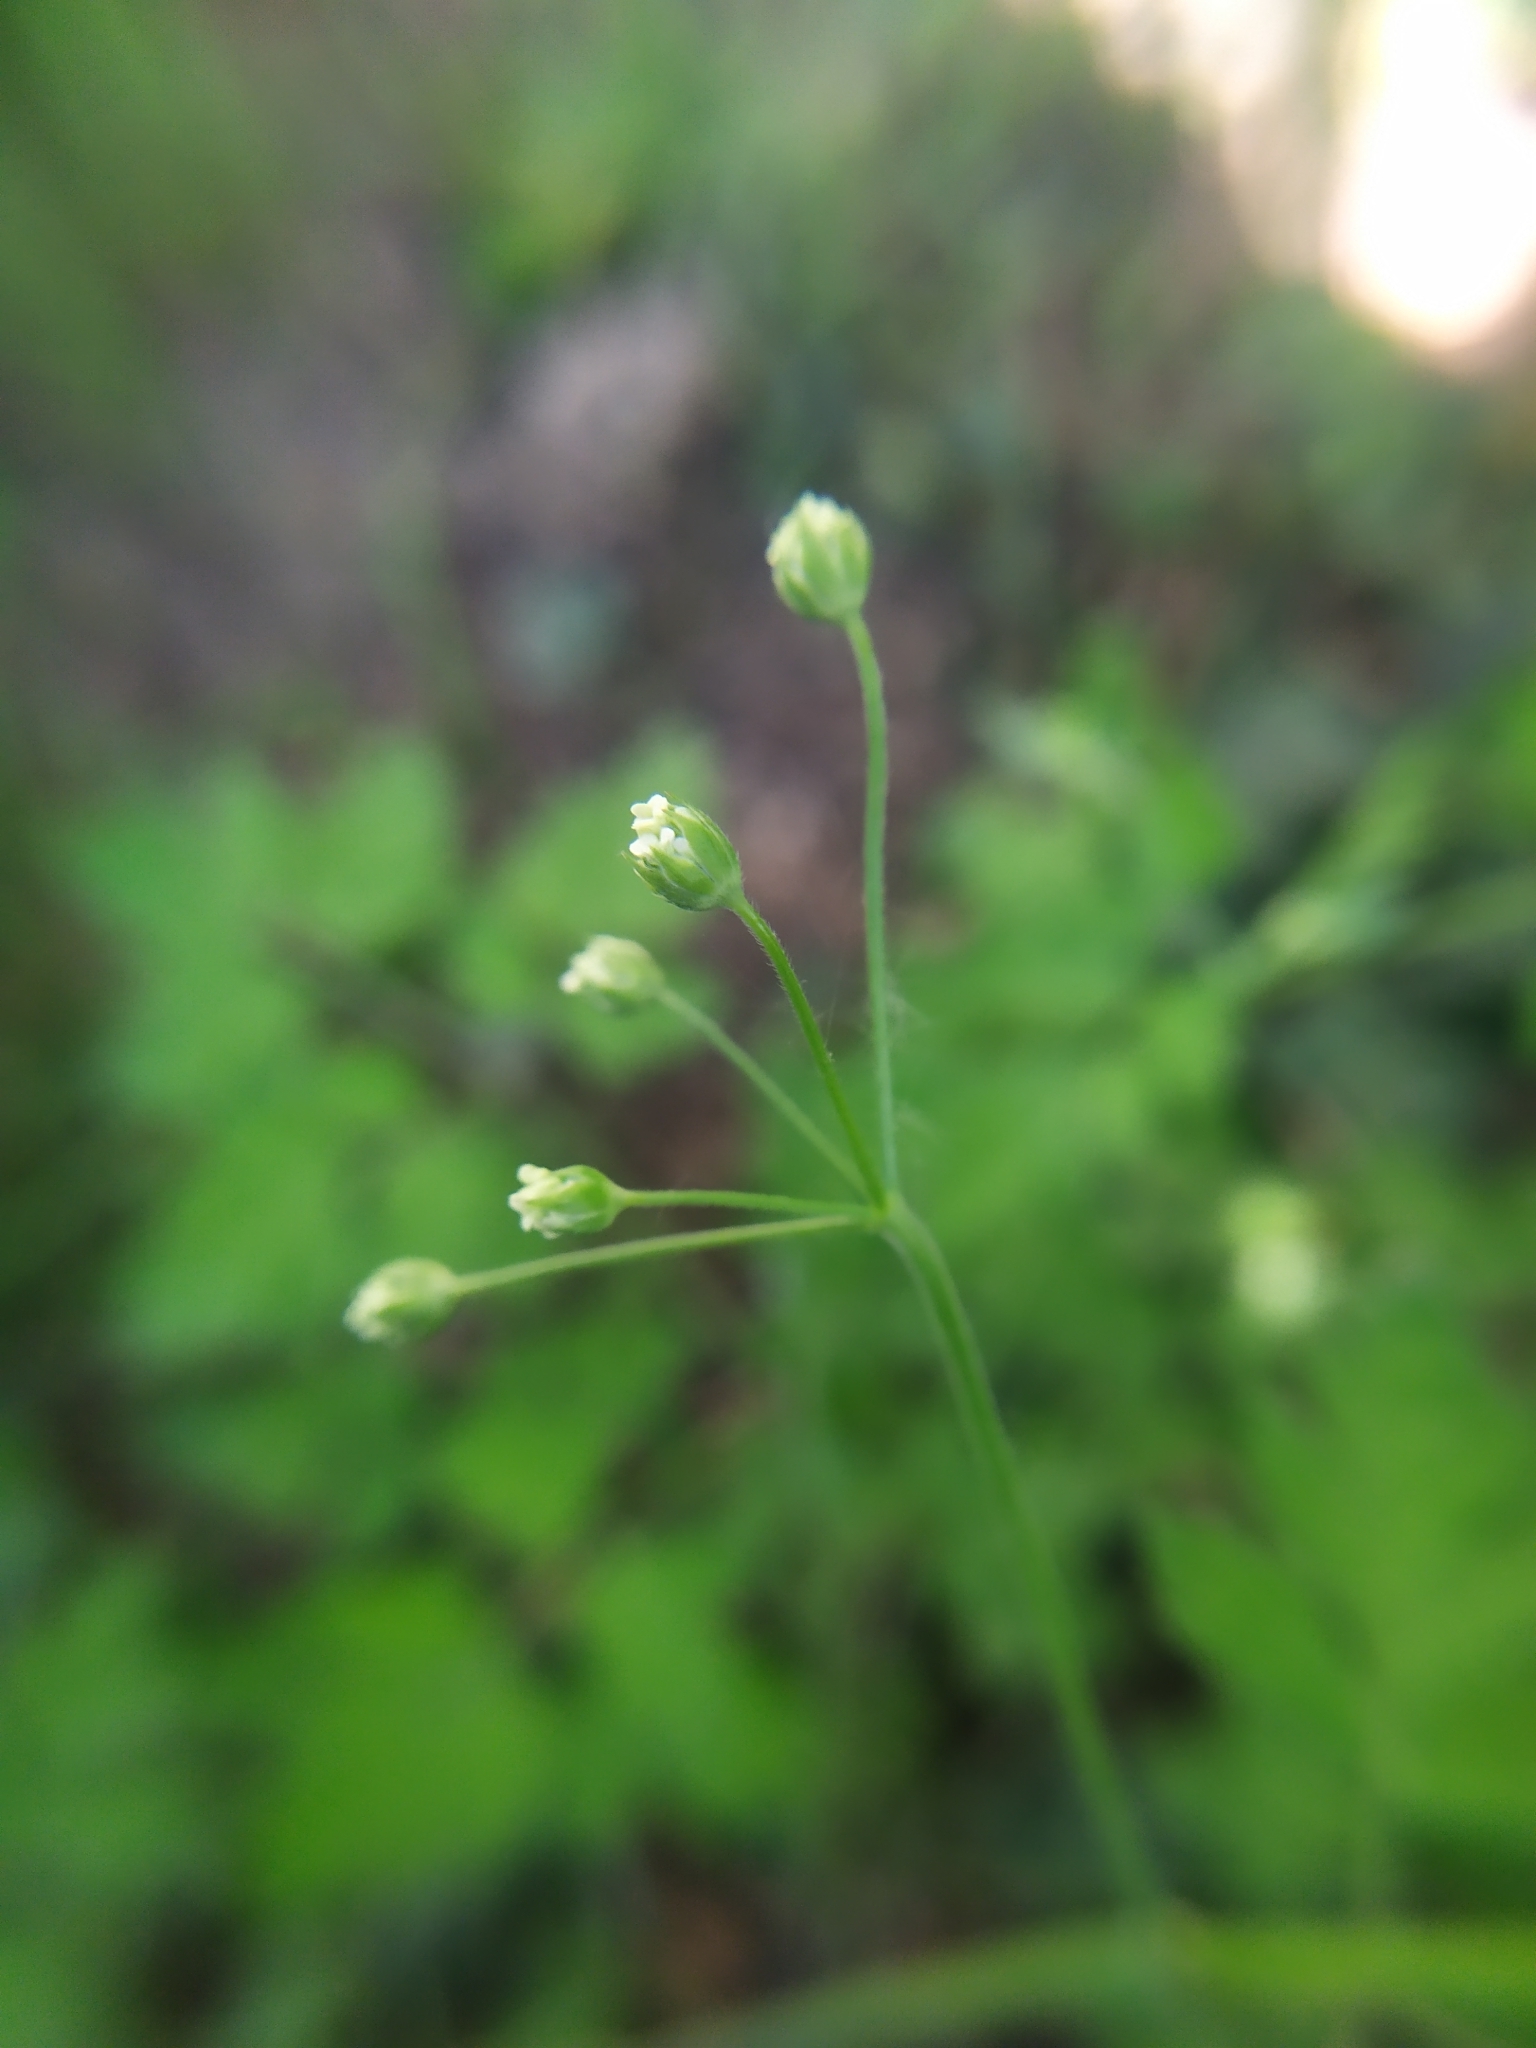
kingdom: Plantae
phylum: Tracheophyta
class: Magnoliopsida
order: Apiales
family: Apiaceae
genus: Chaerophyllum
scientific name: Chaerophyllum temulum
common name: Rough chervil
